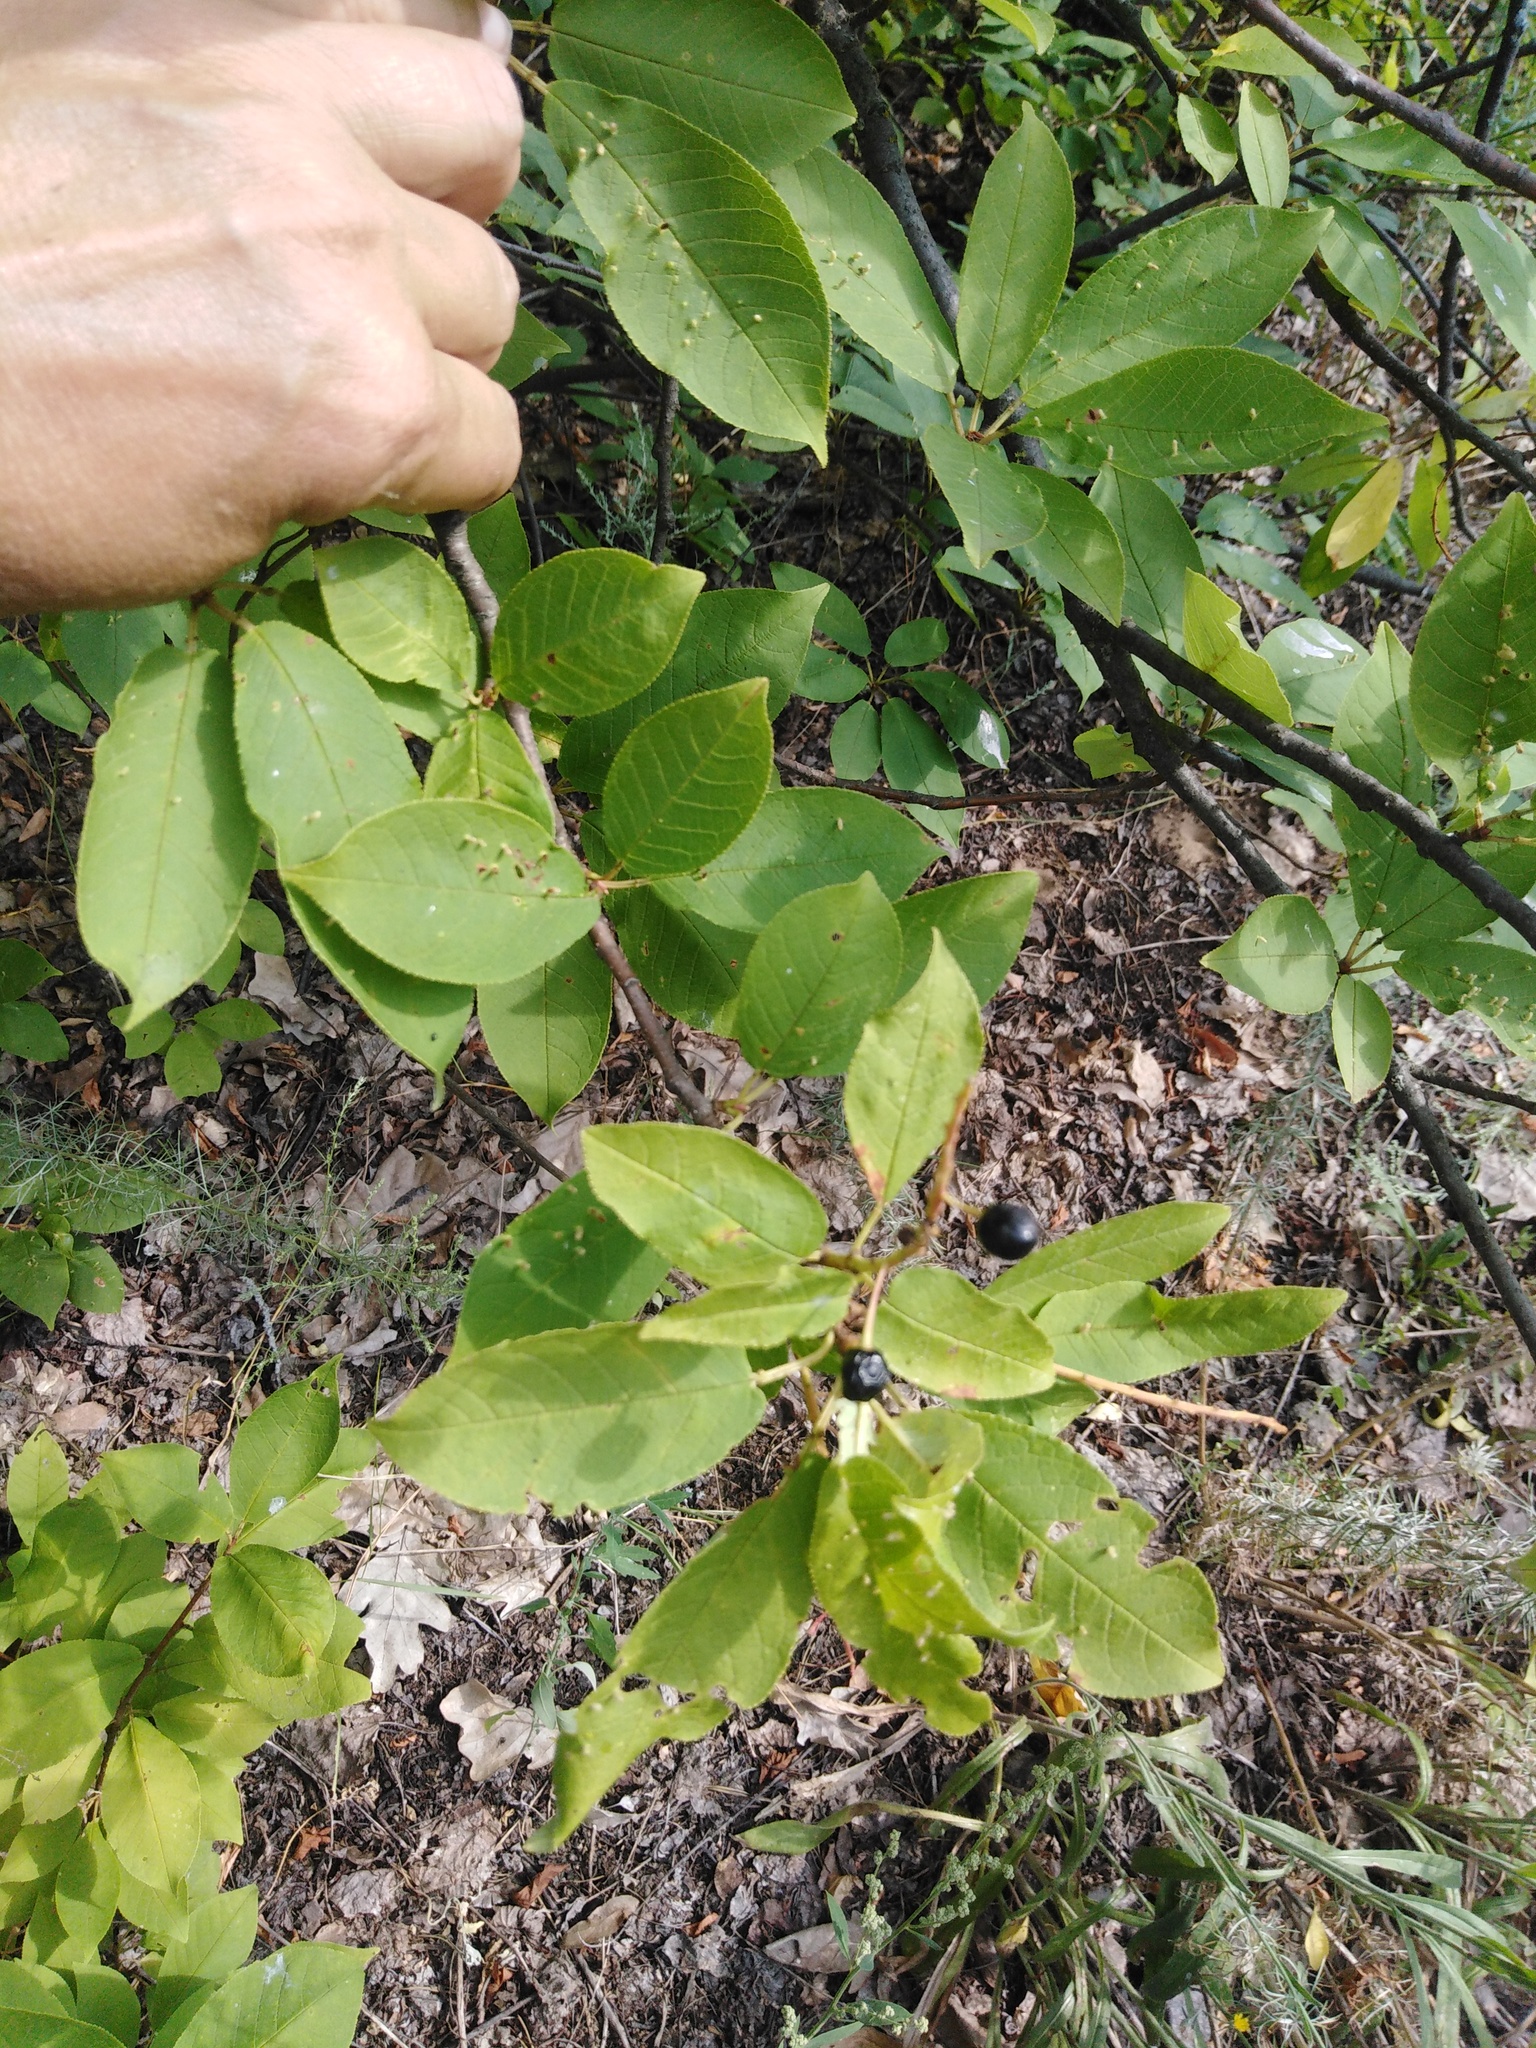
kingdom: Plantae
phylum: Tracheophyta
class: Magnoliopsida
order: Rosales
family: Rosaceae
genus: Prunus
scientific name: Prunus padus
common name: Bird cherry
